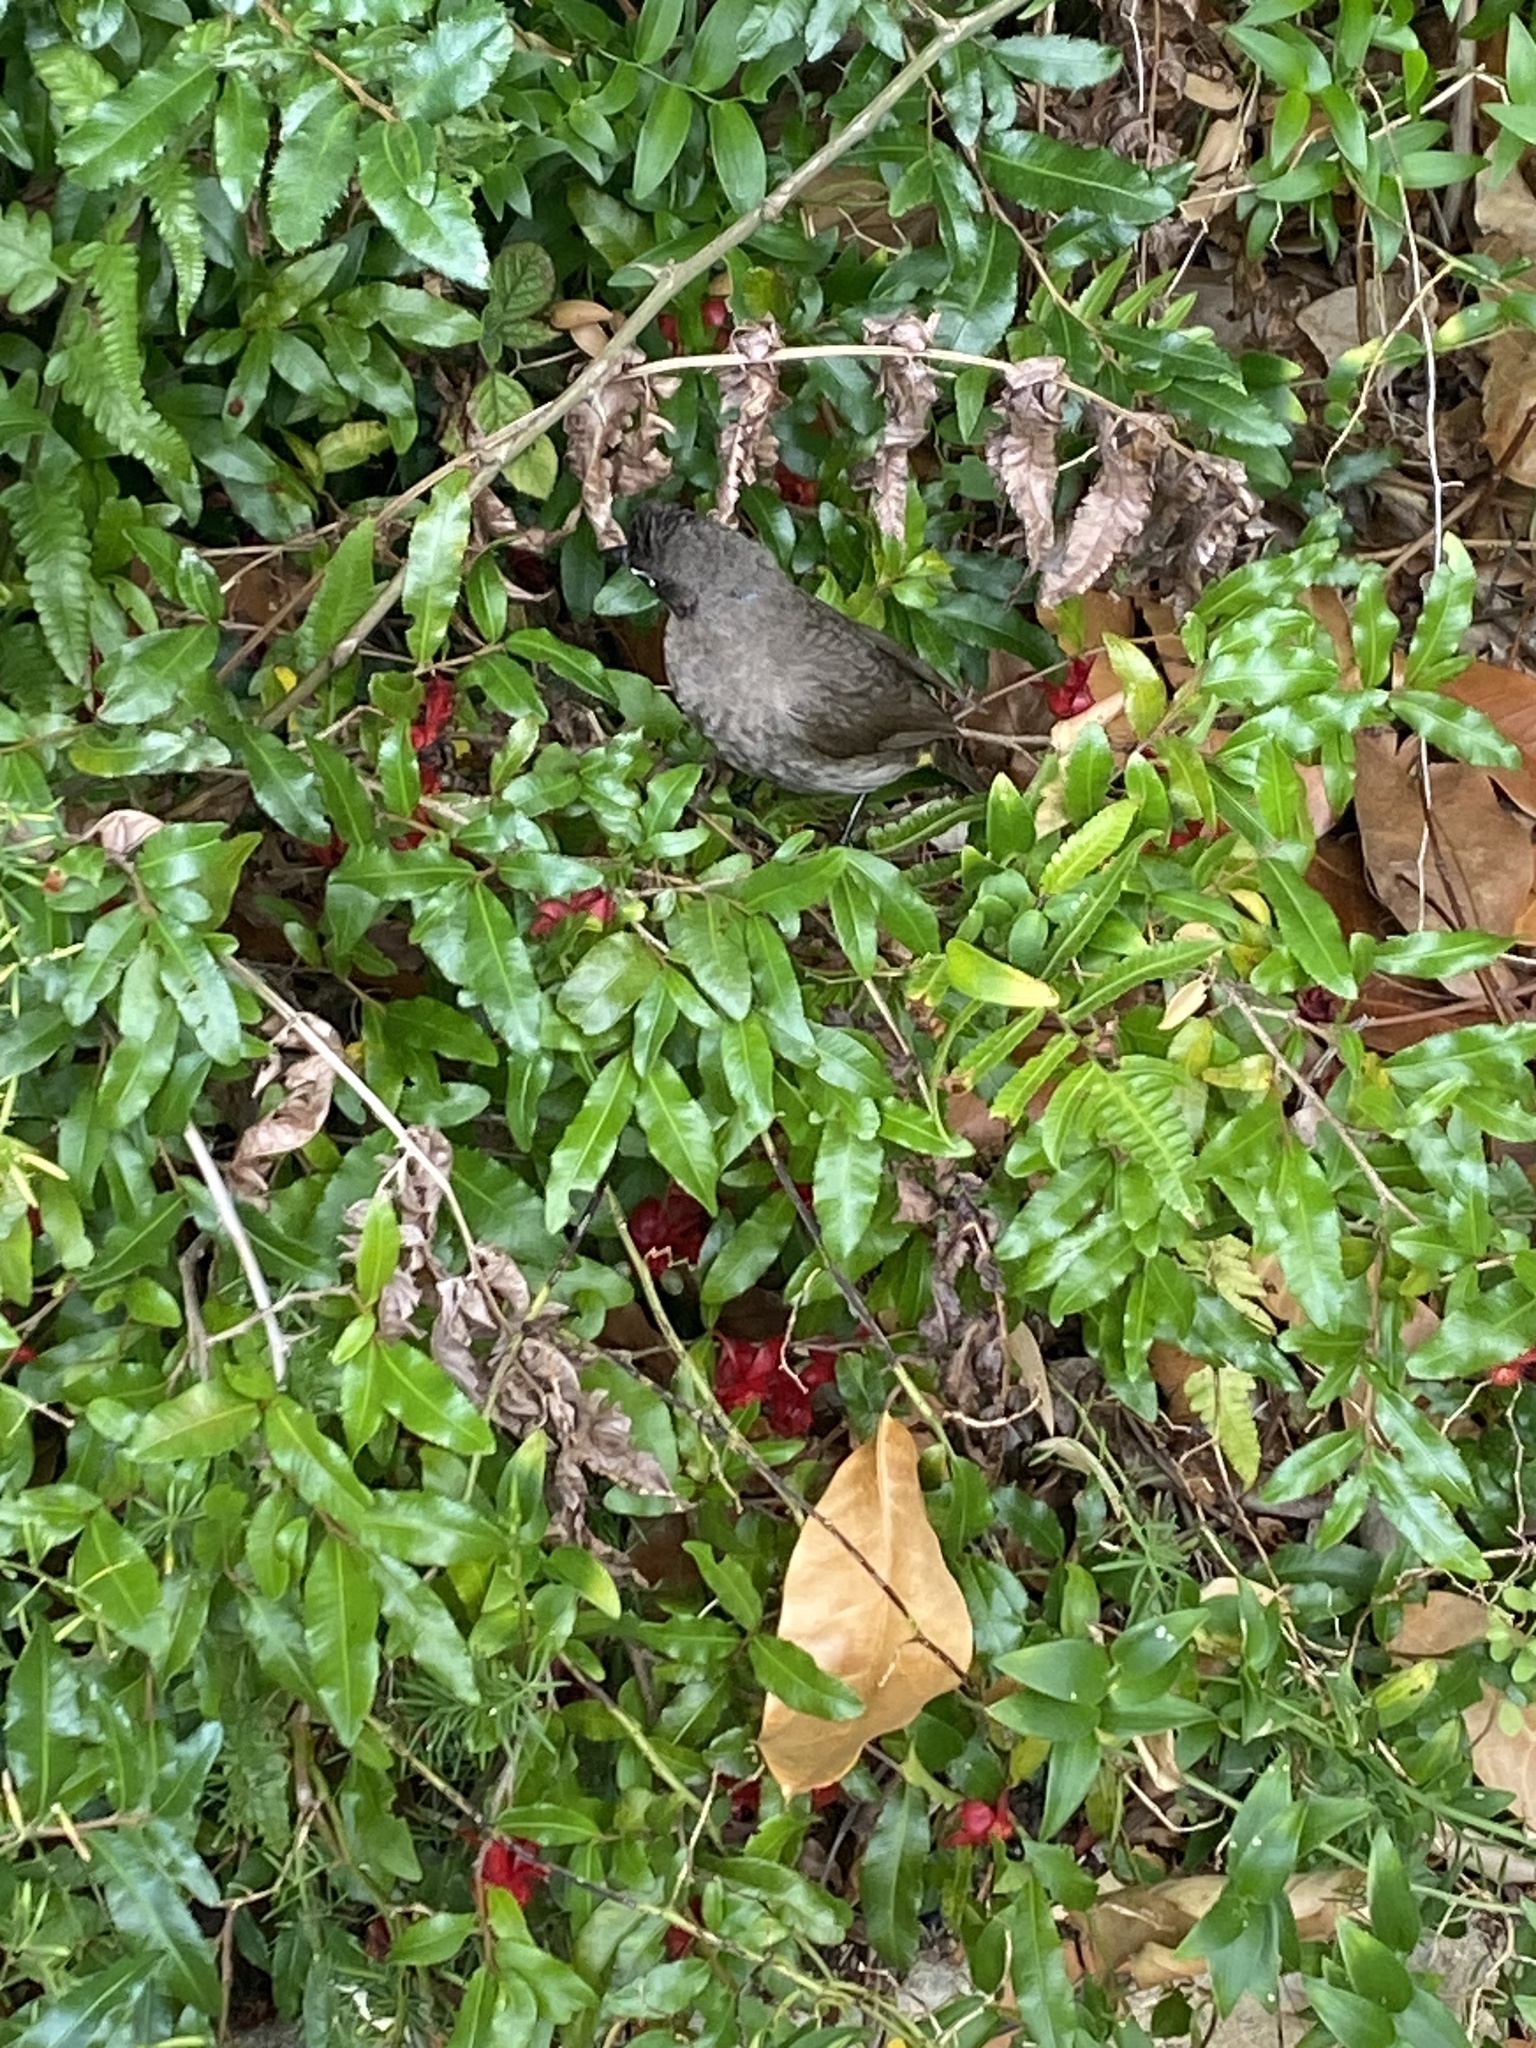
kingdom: Animalia
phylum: Chordata
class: Aves
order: Passeriformes
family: Pycnonotidae
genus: Pycnonotus
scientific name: Pycnonotus capensis
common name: Cape bulbul
